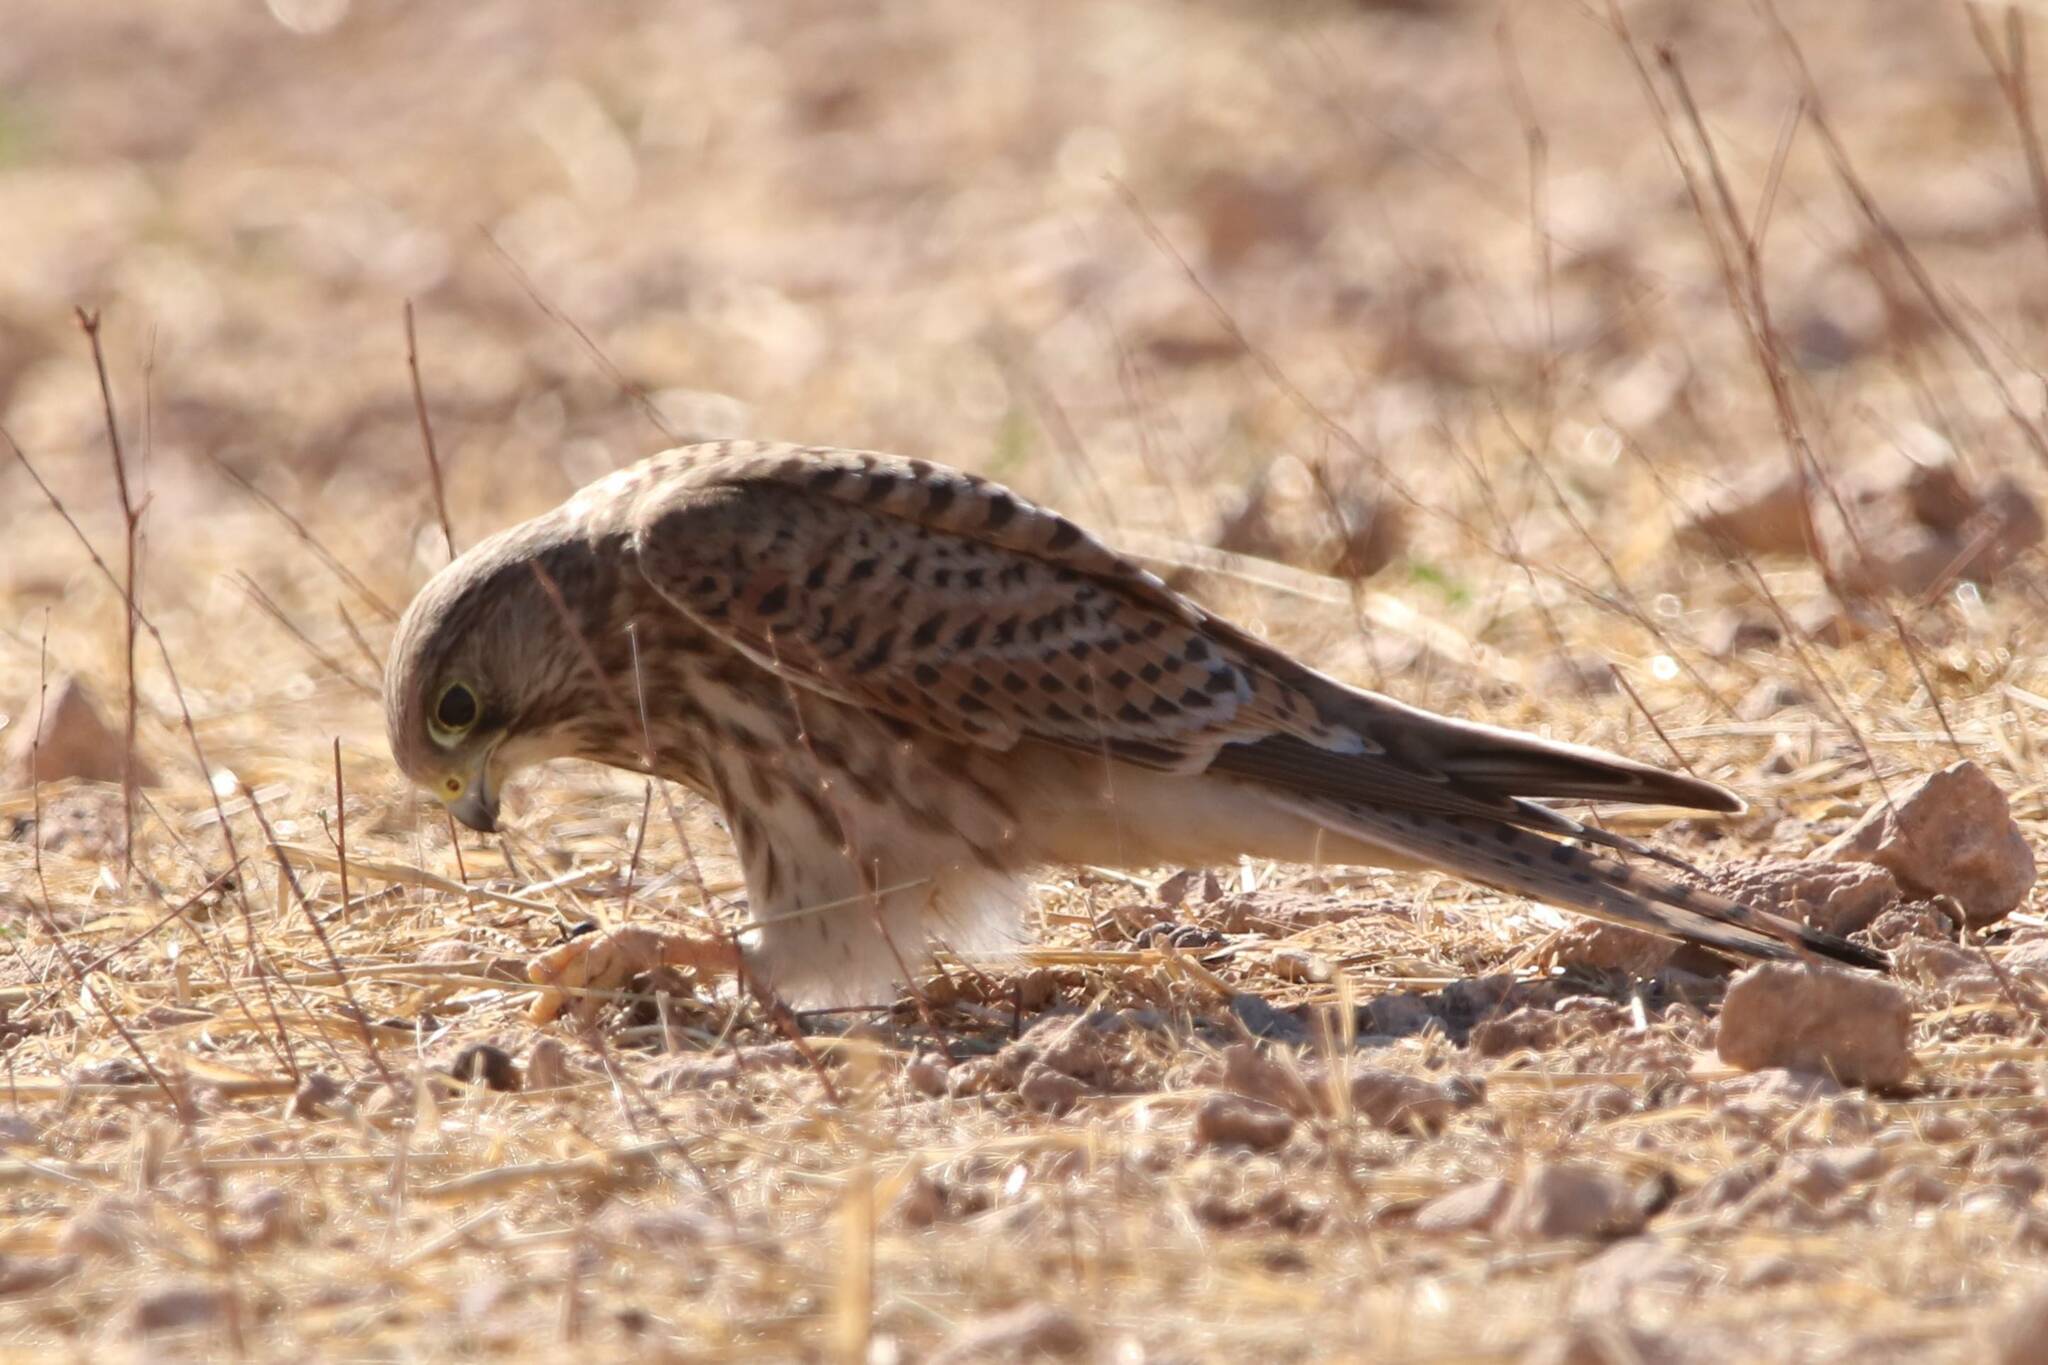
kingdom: Animalia
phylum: Chordata
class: Aves
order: Falconiformes
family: Falconidae
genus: Falco
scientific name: Falco tinnunculus
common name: Common kestrel
